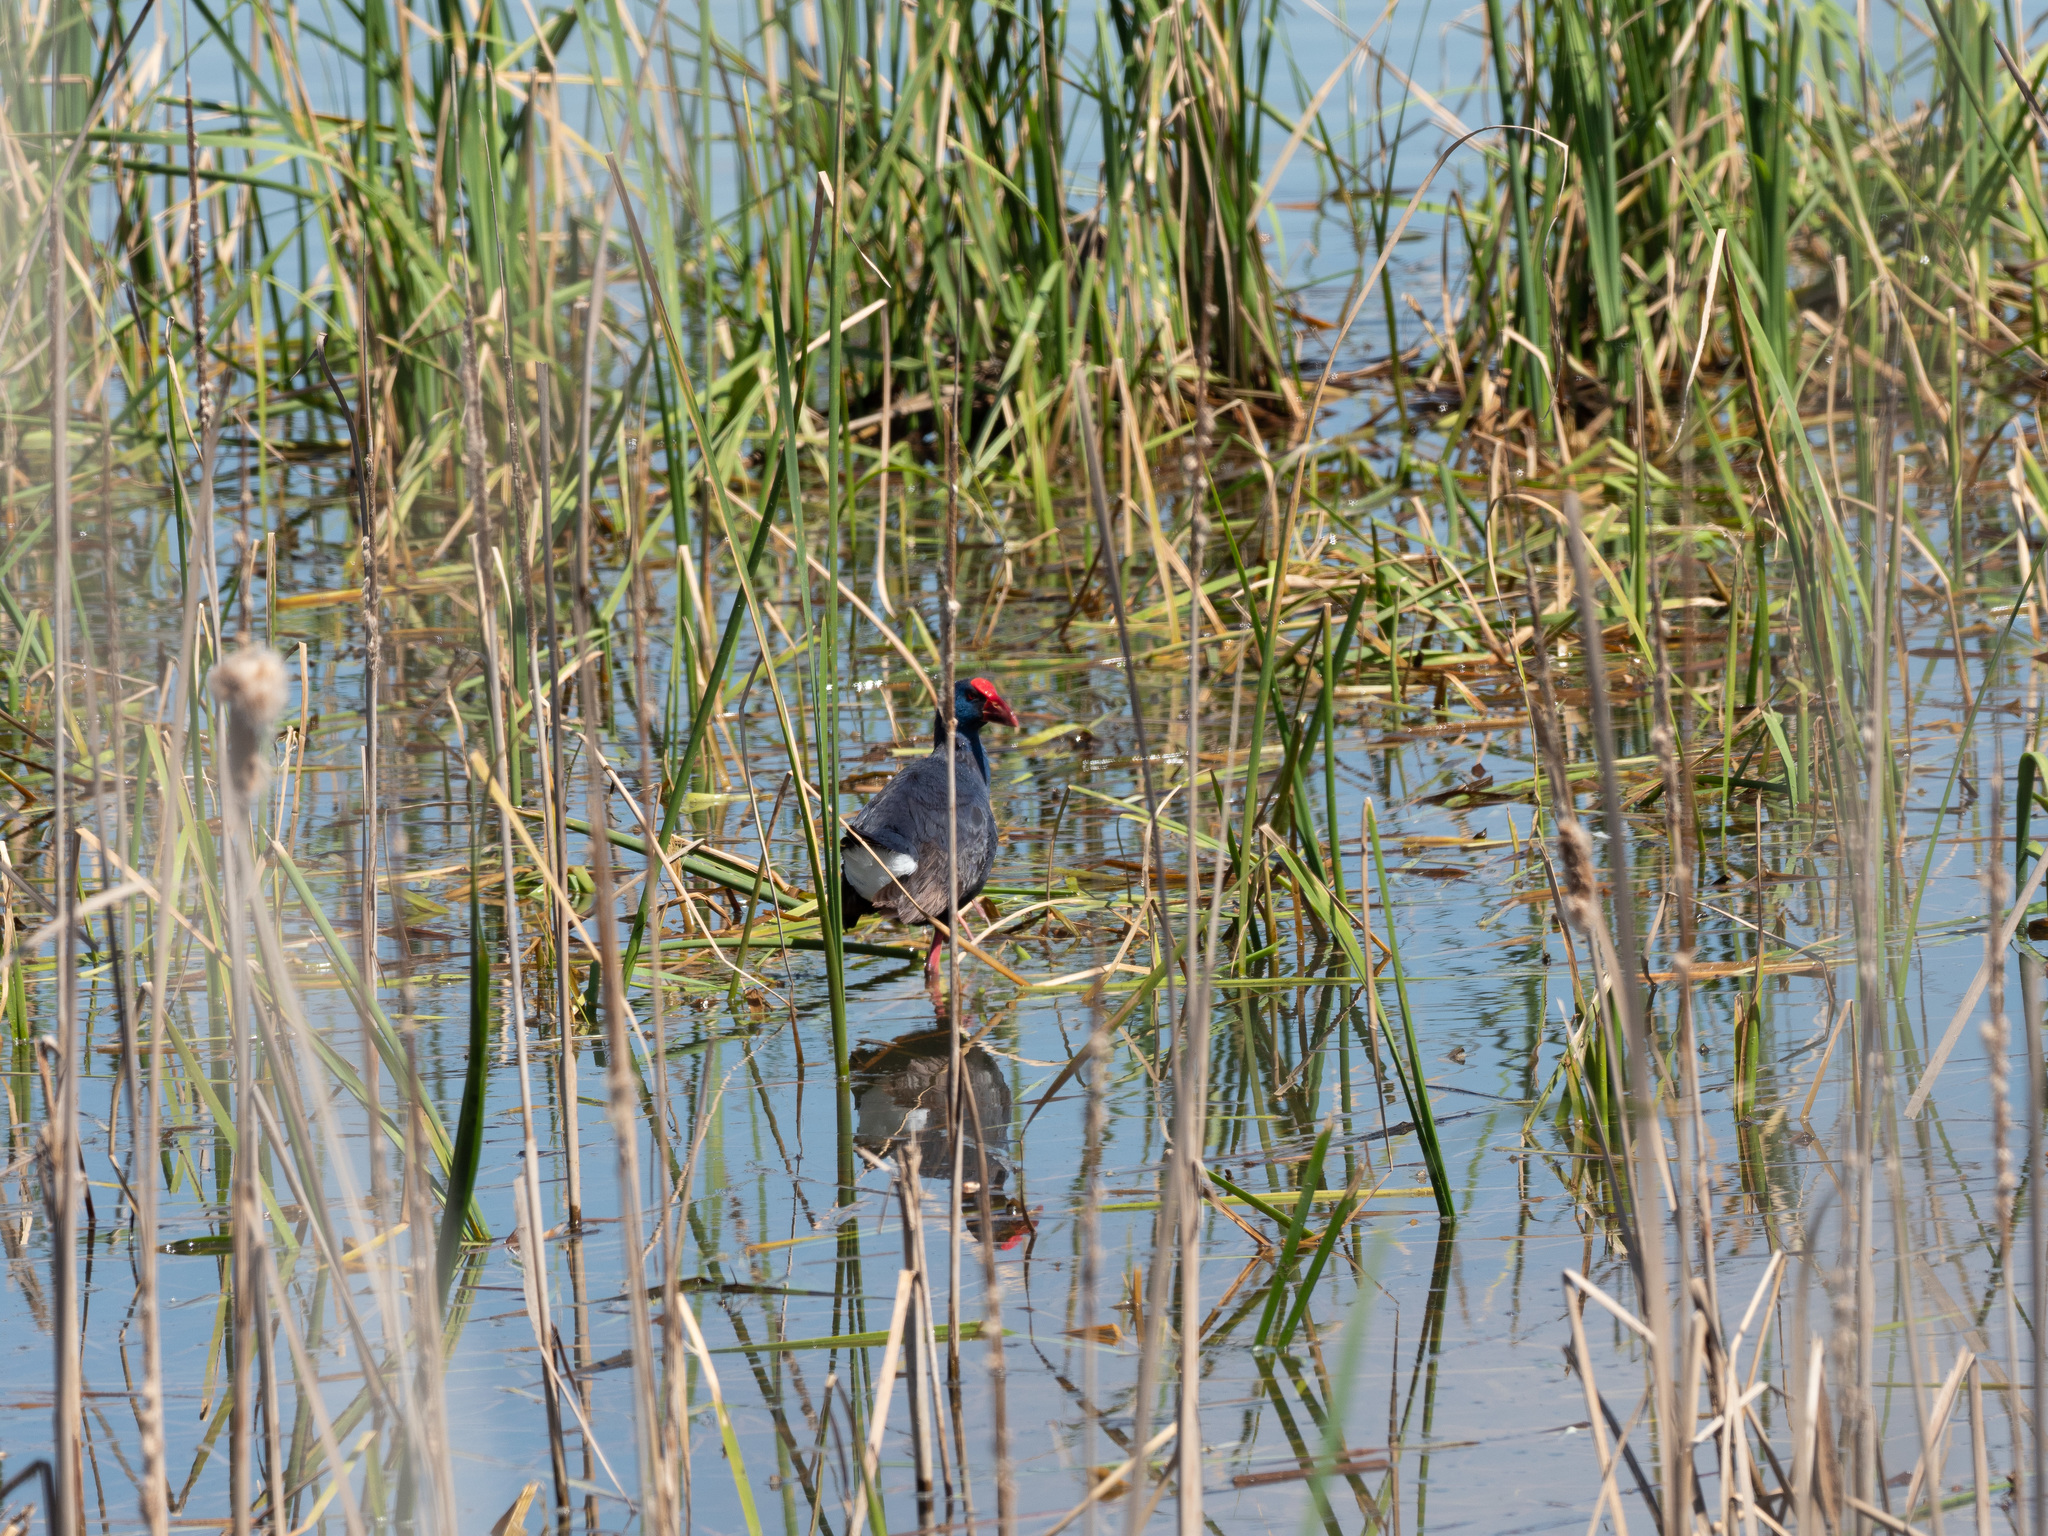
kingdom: Animalia
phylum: Chordata
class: Aves
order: Gruiformes
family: Rallidae
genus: Porphyrio
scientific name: Porphyrio porphyrio
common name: Purple swamphen
